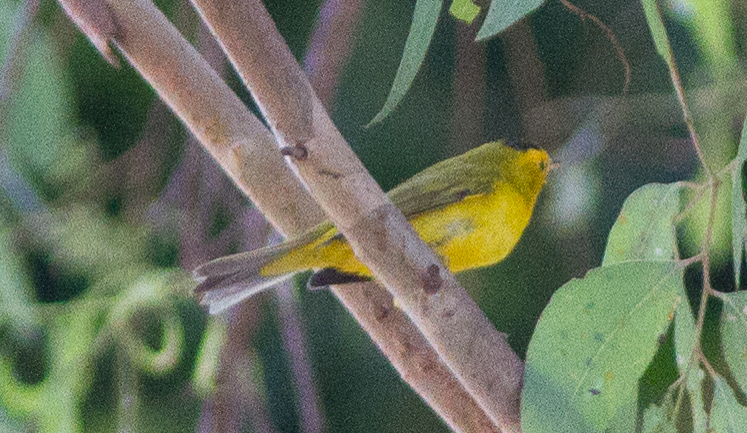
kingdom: Animalia
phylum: Chordata
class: Aves
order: Passeriformes
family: Parulidae
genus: Cardellina
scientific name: Cardellina pusilla
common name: Wilson's warbler
